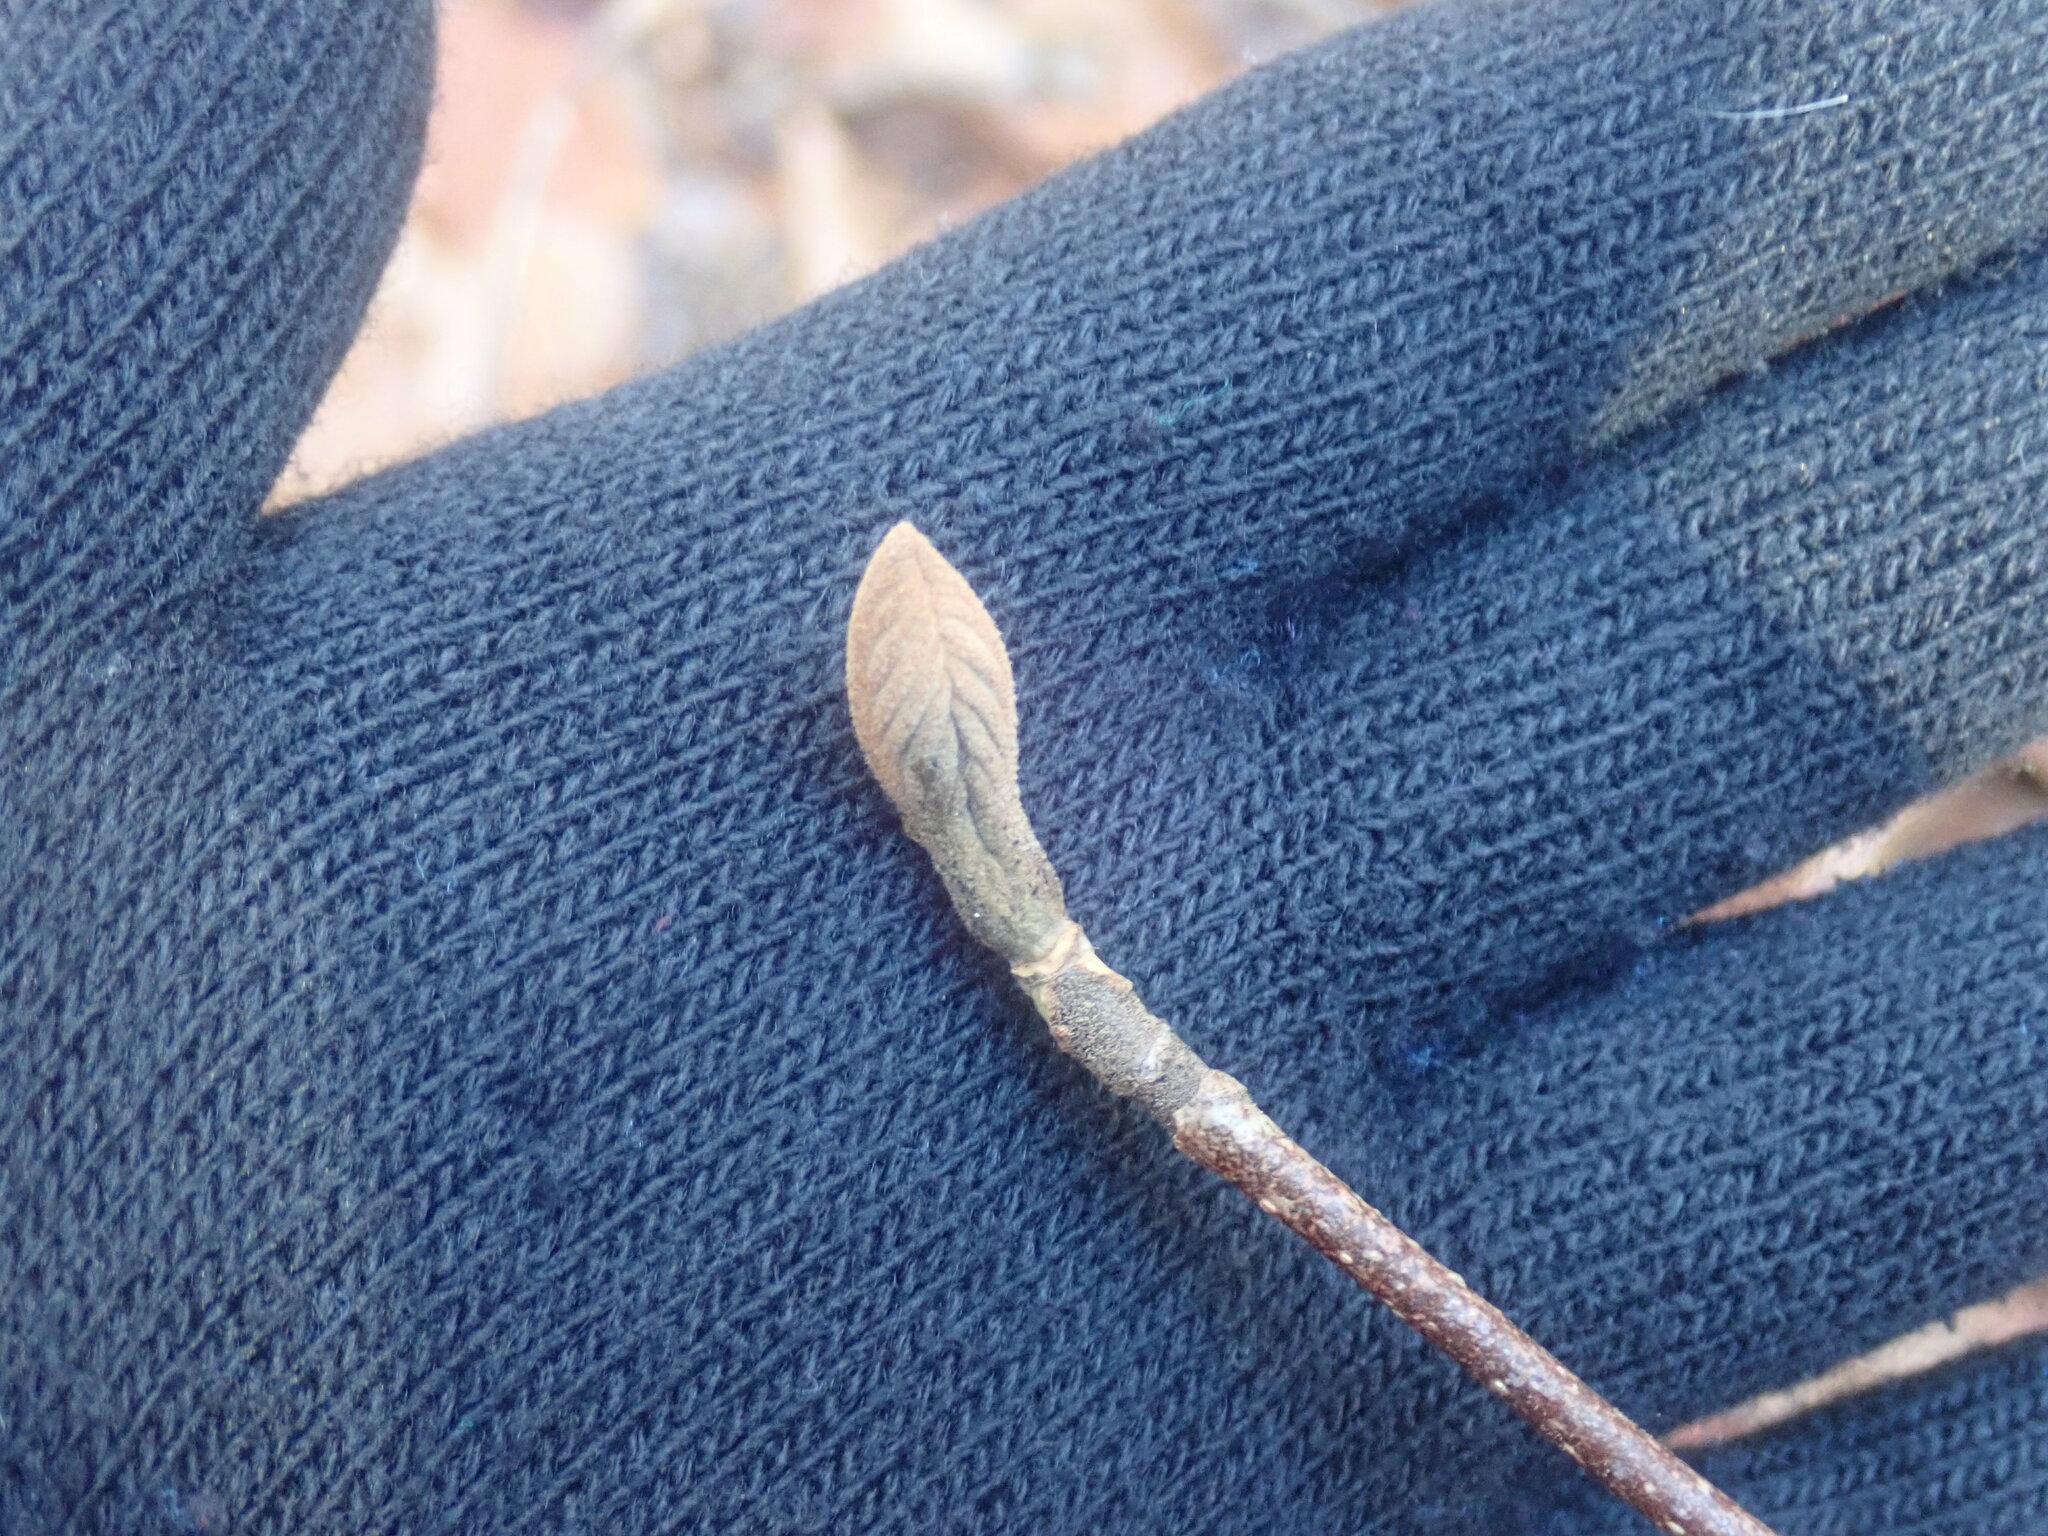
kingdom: Plantae
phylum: Tracheophyta
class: Magnoliopsida
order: Dipsacales
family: Viburnaceae
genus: Viburnum
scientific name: Viburnum lantanoides
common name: Hobblebush
